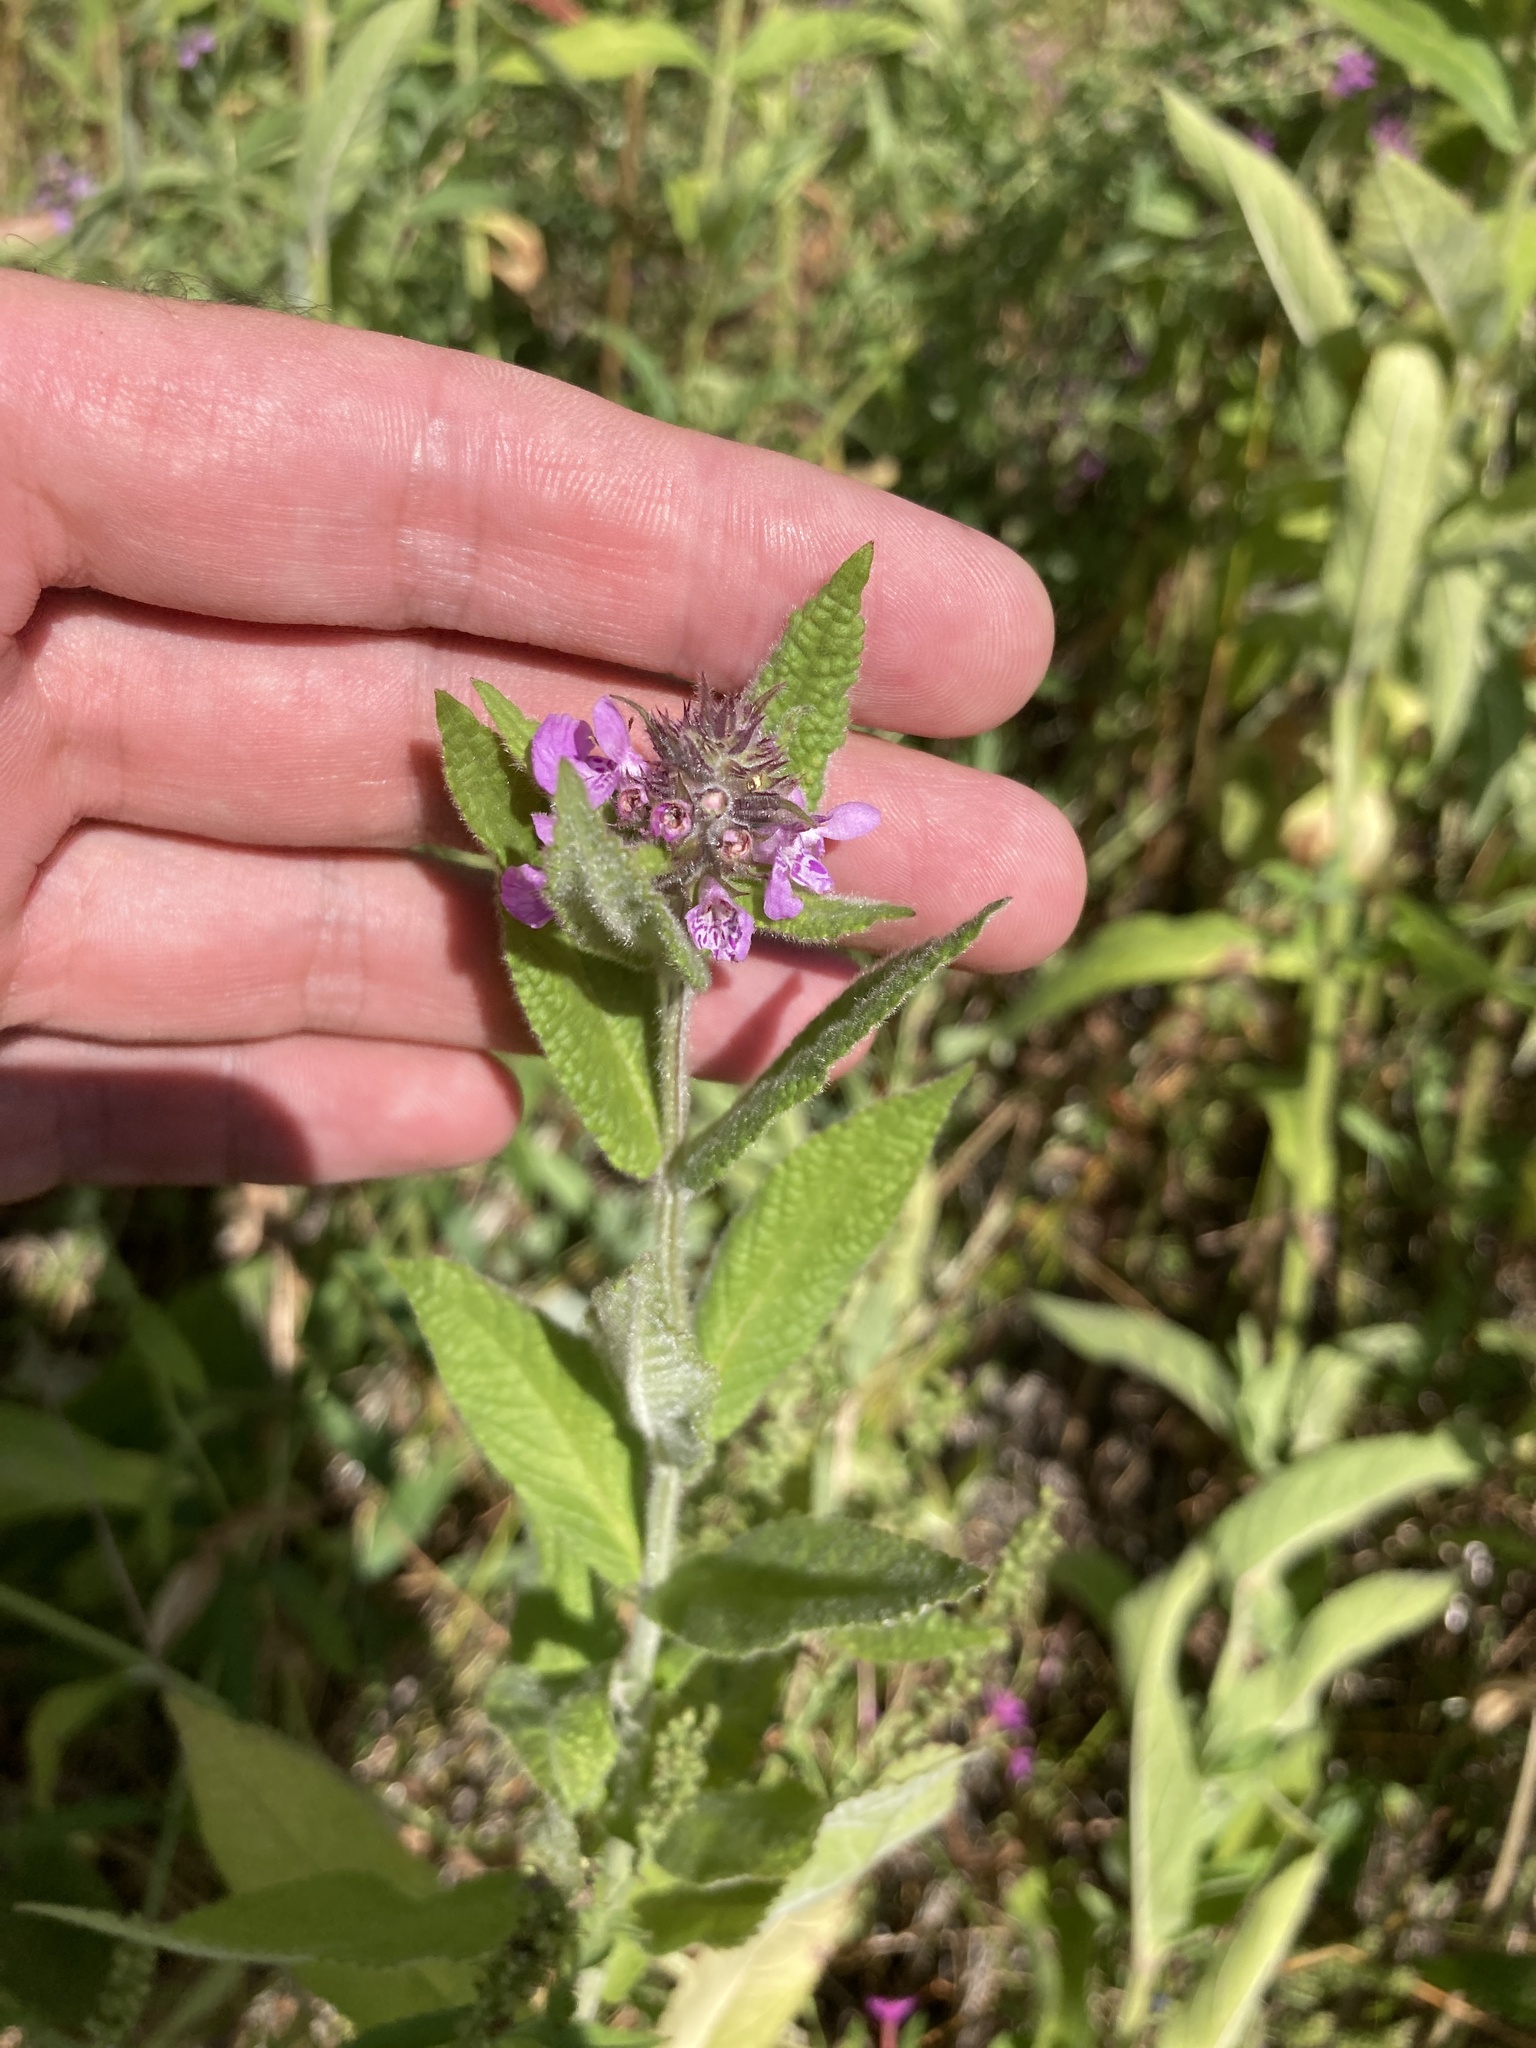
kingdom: Plantae
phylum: Tracheophyta
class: Magnoliopsida
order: Lamiales
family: Lamiaceae
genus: Stachys
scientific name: Stachys palustris
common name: Marsh woundwort
